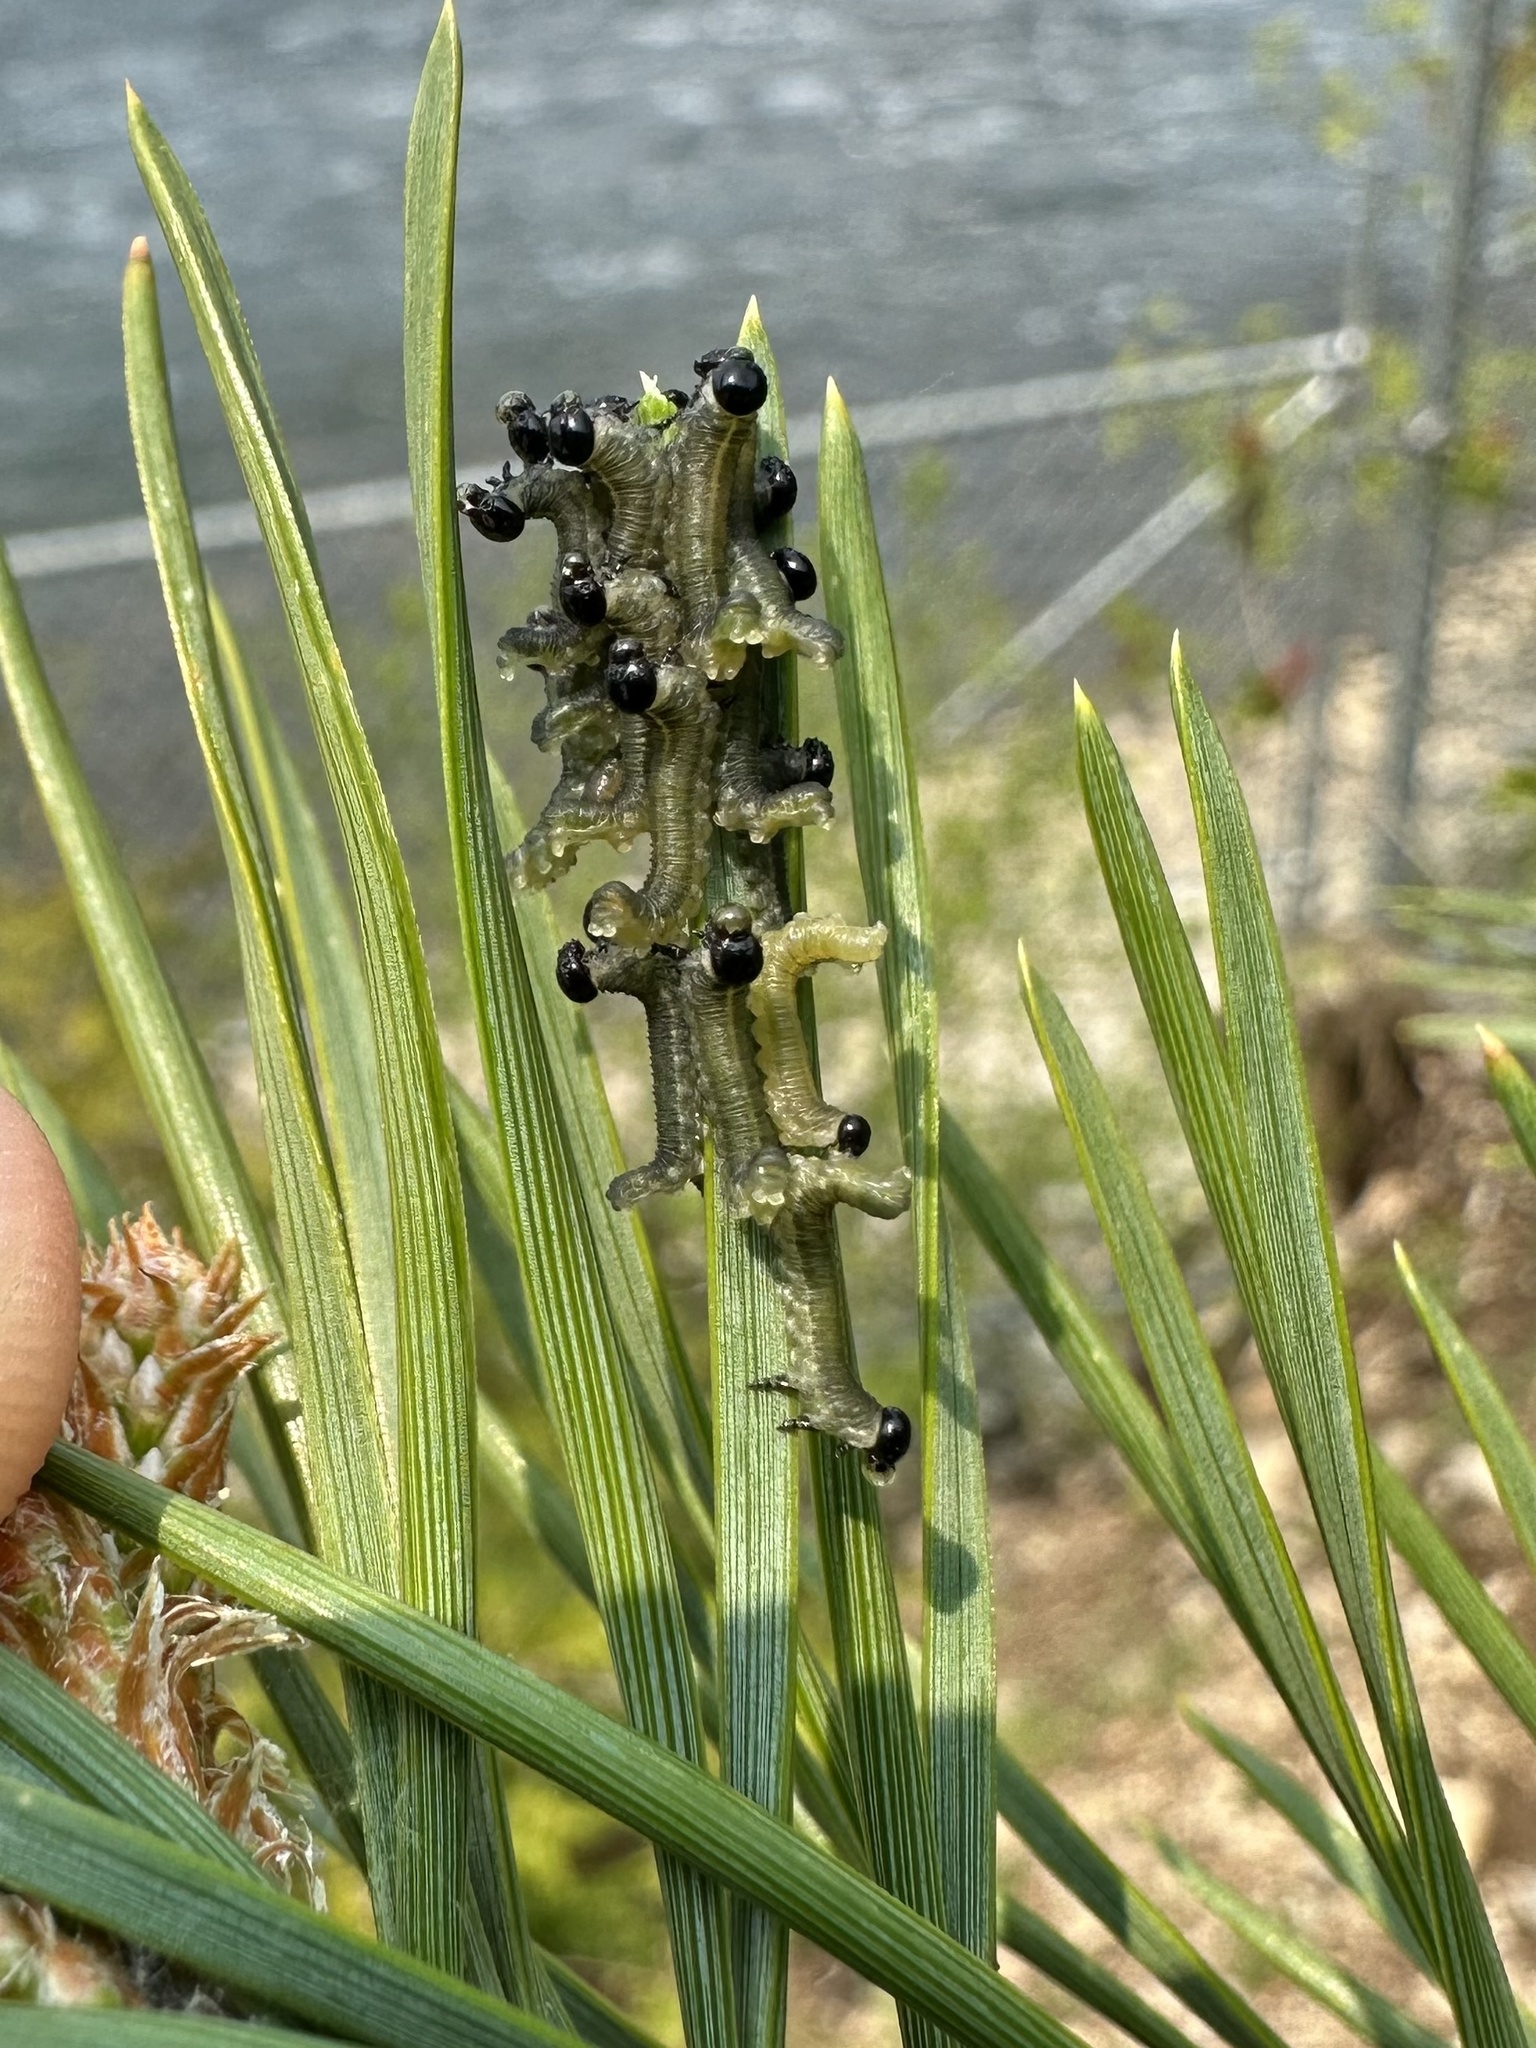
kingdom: Animalia
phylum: Arthropoda
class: Insecta
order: Hymenoptera
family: Diprionidae
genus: Neodiprion
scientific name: Neodiprion sertifer
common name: European pine sawfly
